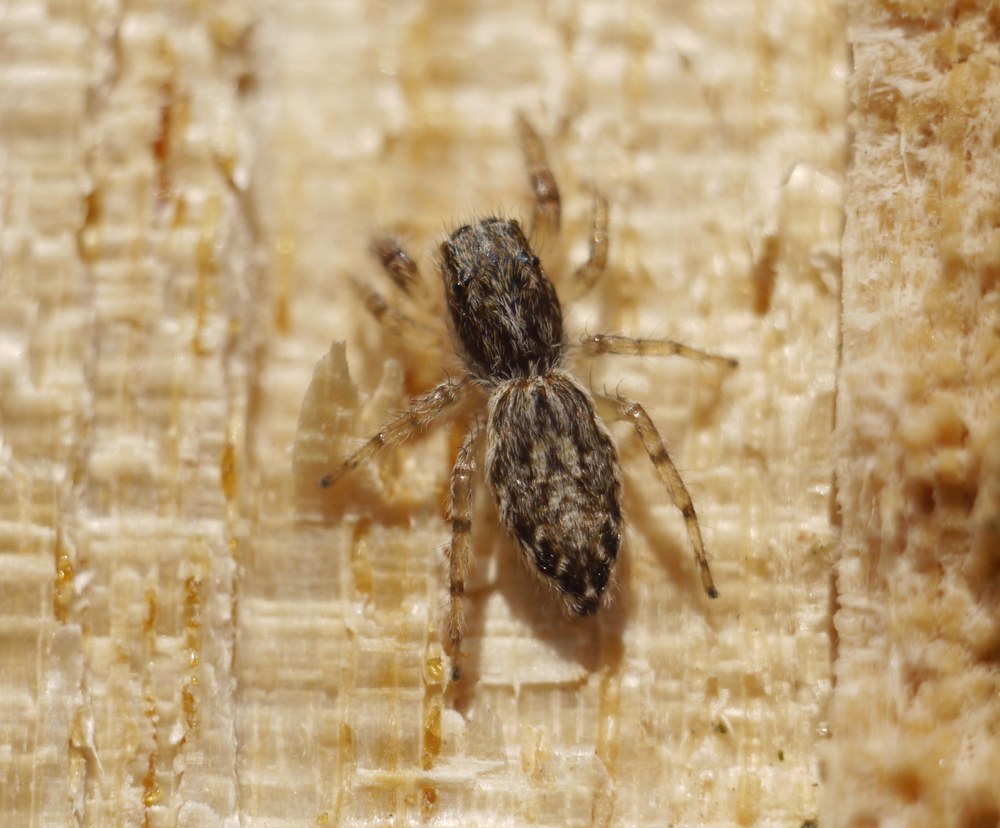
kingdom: Animalia
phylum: Arthropoda
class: Arachnida
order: Araneae
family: Salticidae
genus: Pseudicius
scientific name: Pseudicius encarpatus
